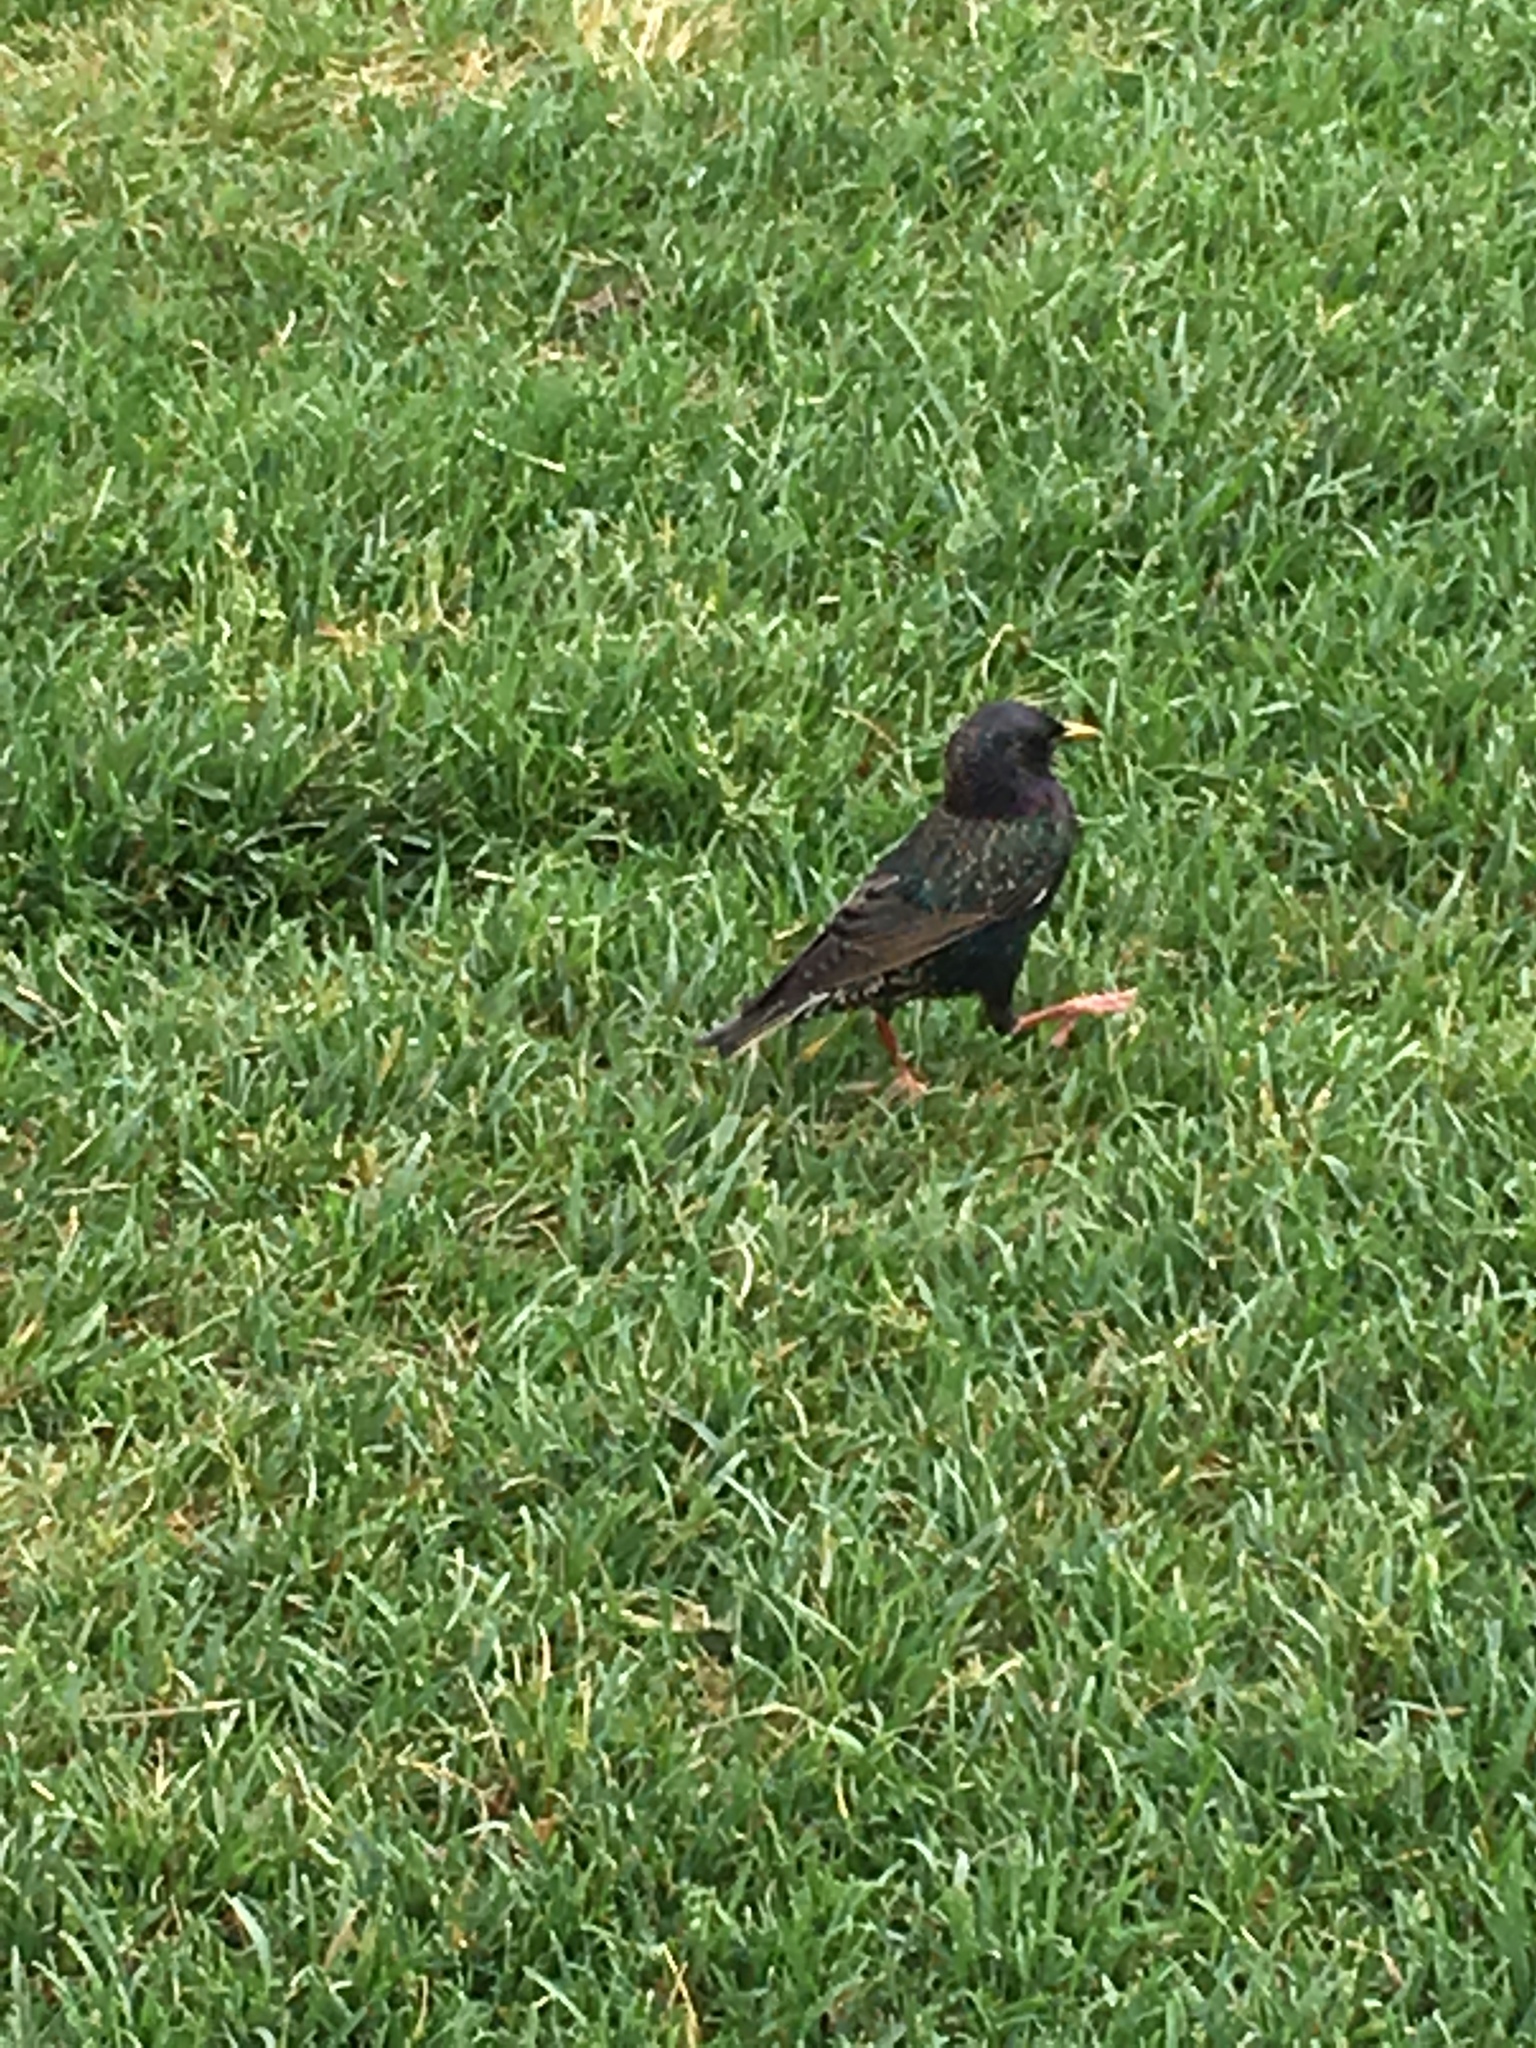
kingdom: Animalia
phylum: Chordata
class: Aves
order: Passeriformes
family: Sturnidae
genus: Sturnus
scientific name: Sturnus vulgaris
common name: Common starling
